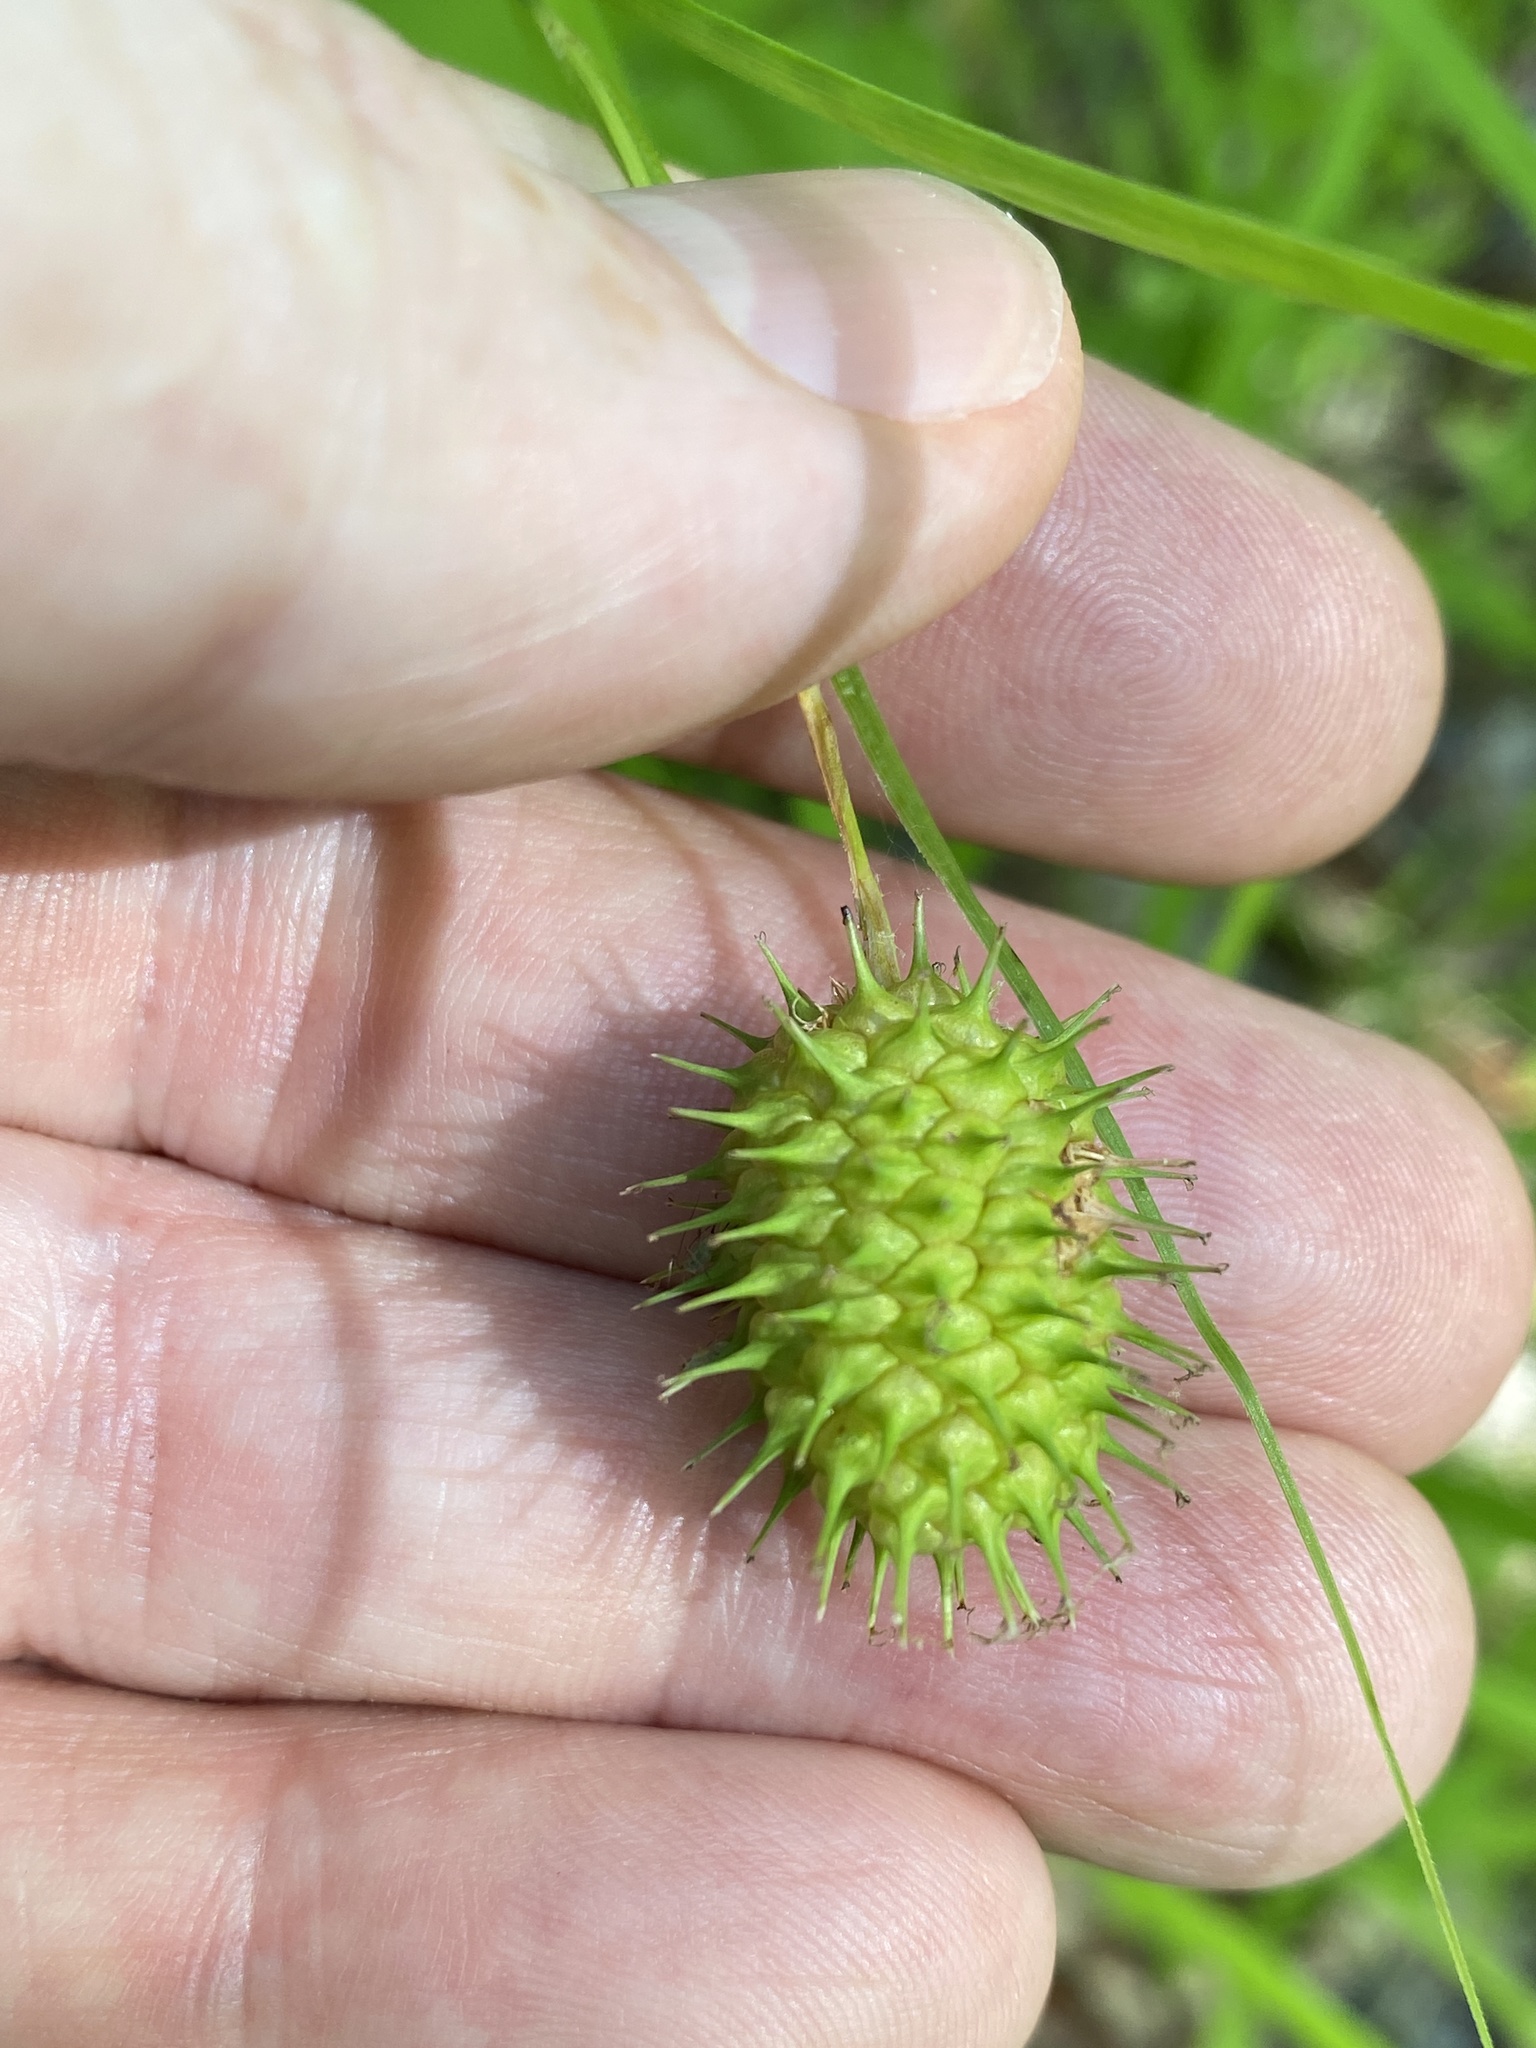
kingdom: Plantae
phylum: Tracheophyta
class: Liliopsida
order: Poales
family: Cyperaceae
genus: Carex
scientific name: Carex squarrosa
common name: Narrow-leaved cattail sedge
